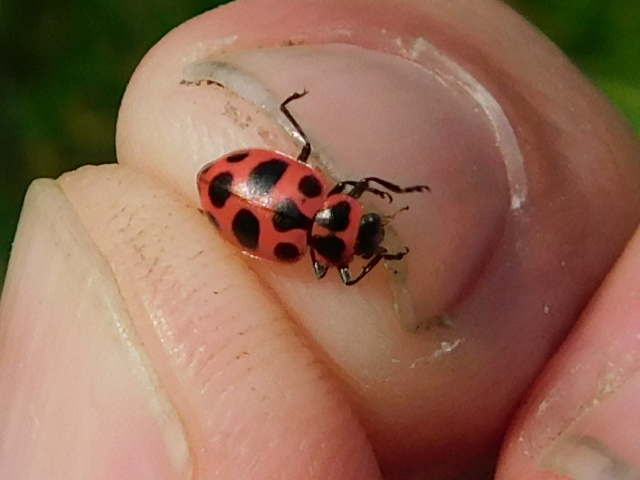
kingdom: Animalia
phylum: Arthropoda
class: Insecta
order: Coleoptera
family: Coccinellidae
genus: Coleomegilla
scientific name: Coleomegilla maculata
